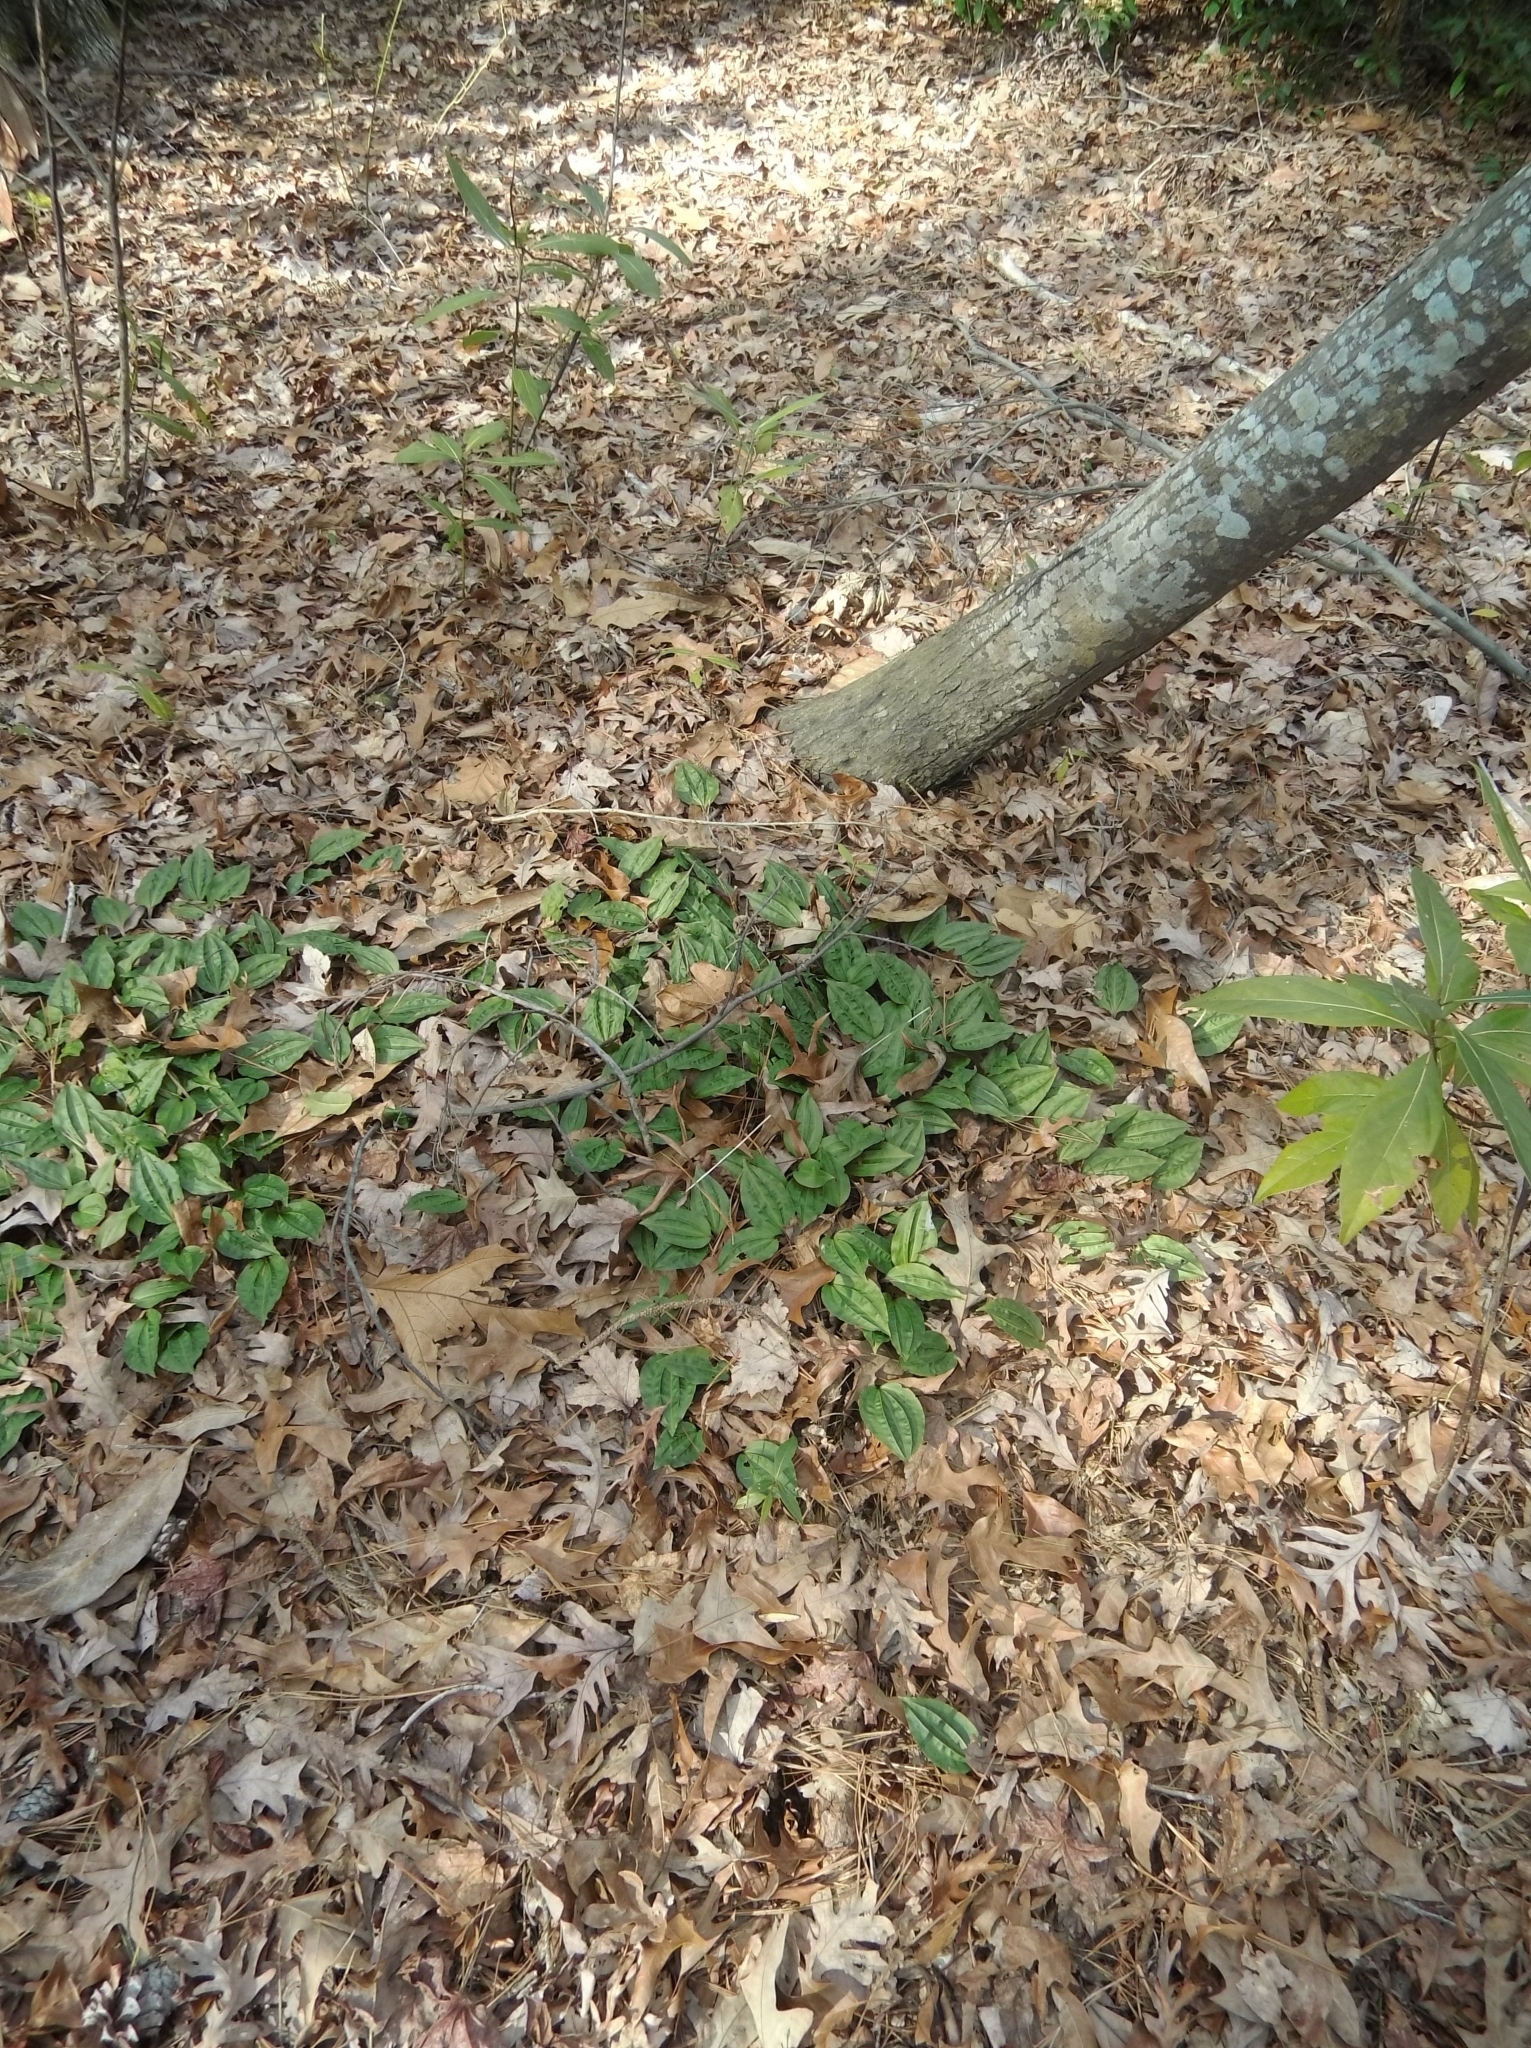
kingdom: Plantae
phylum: Tracheophyta
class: Liliopsida
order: Asparagales
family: Orchidaceae
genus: Tipularia
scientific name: Tipularia discolor
